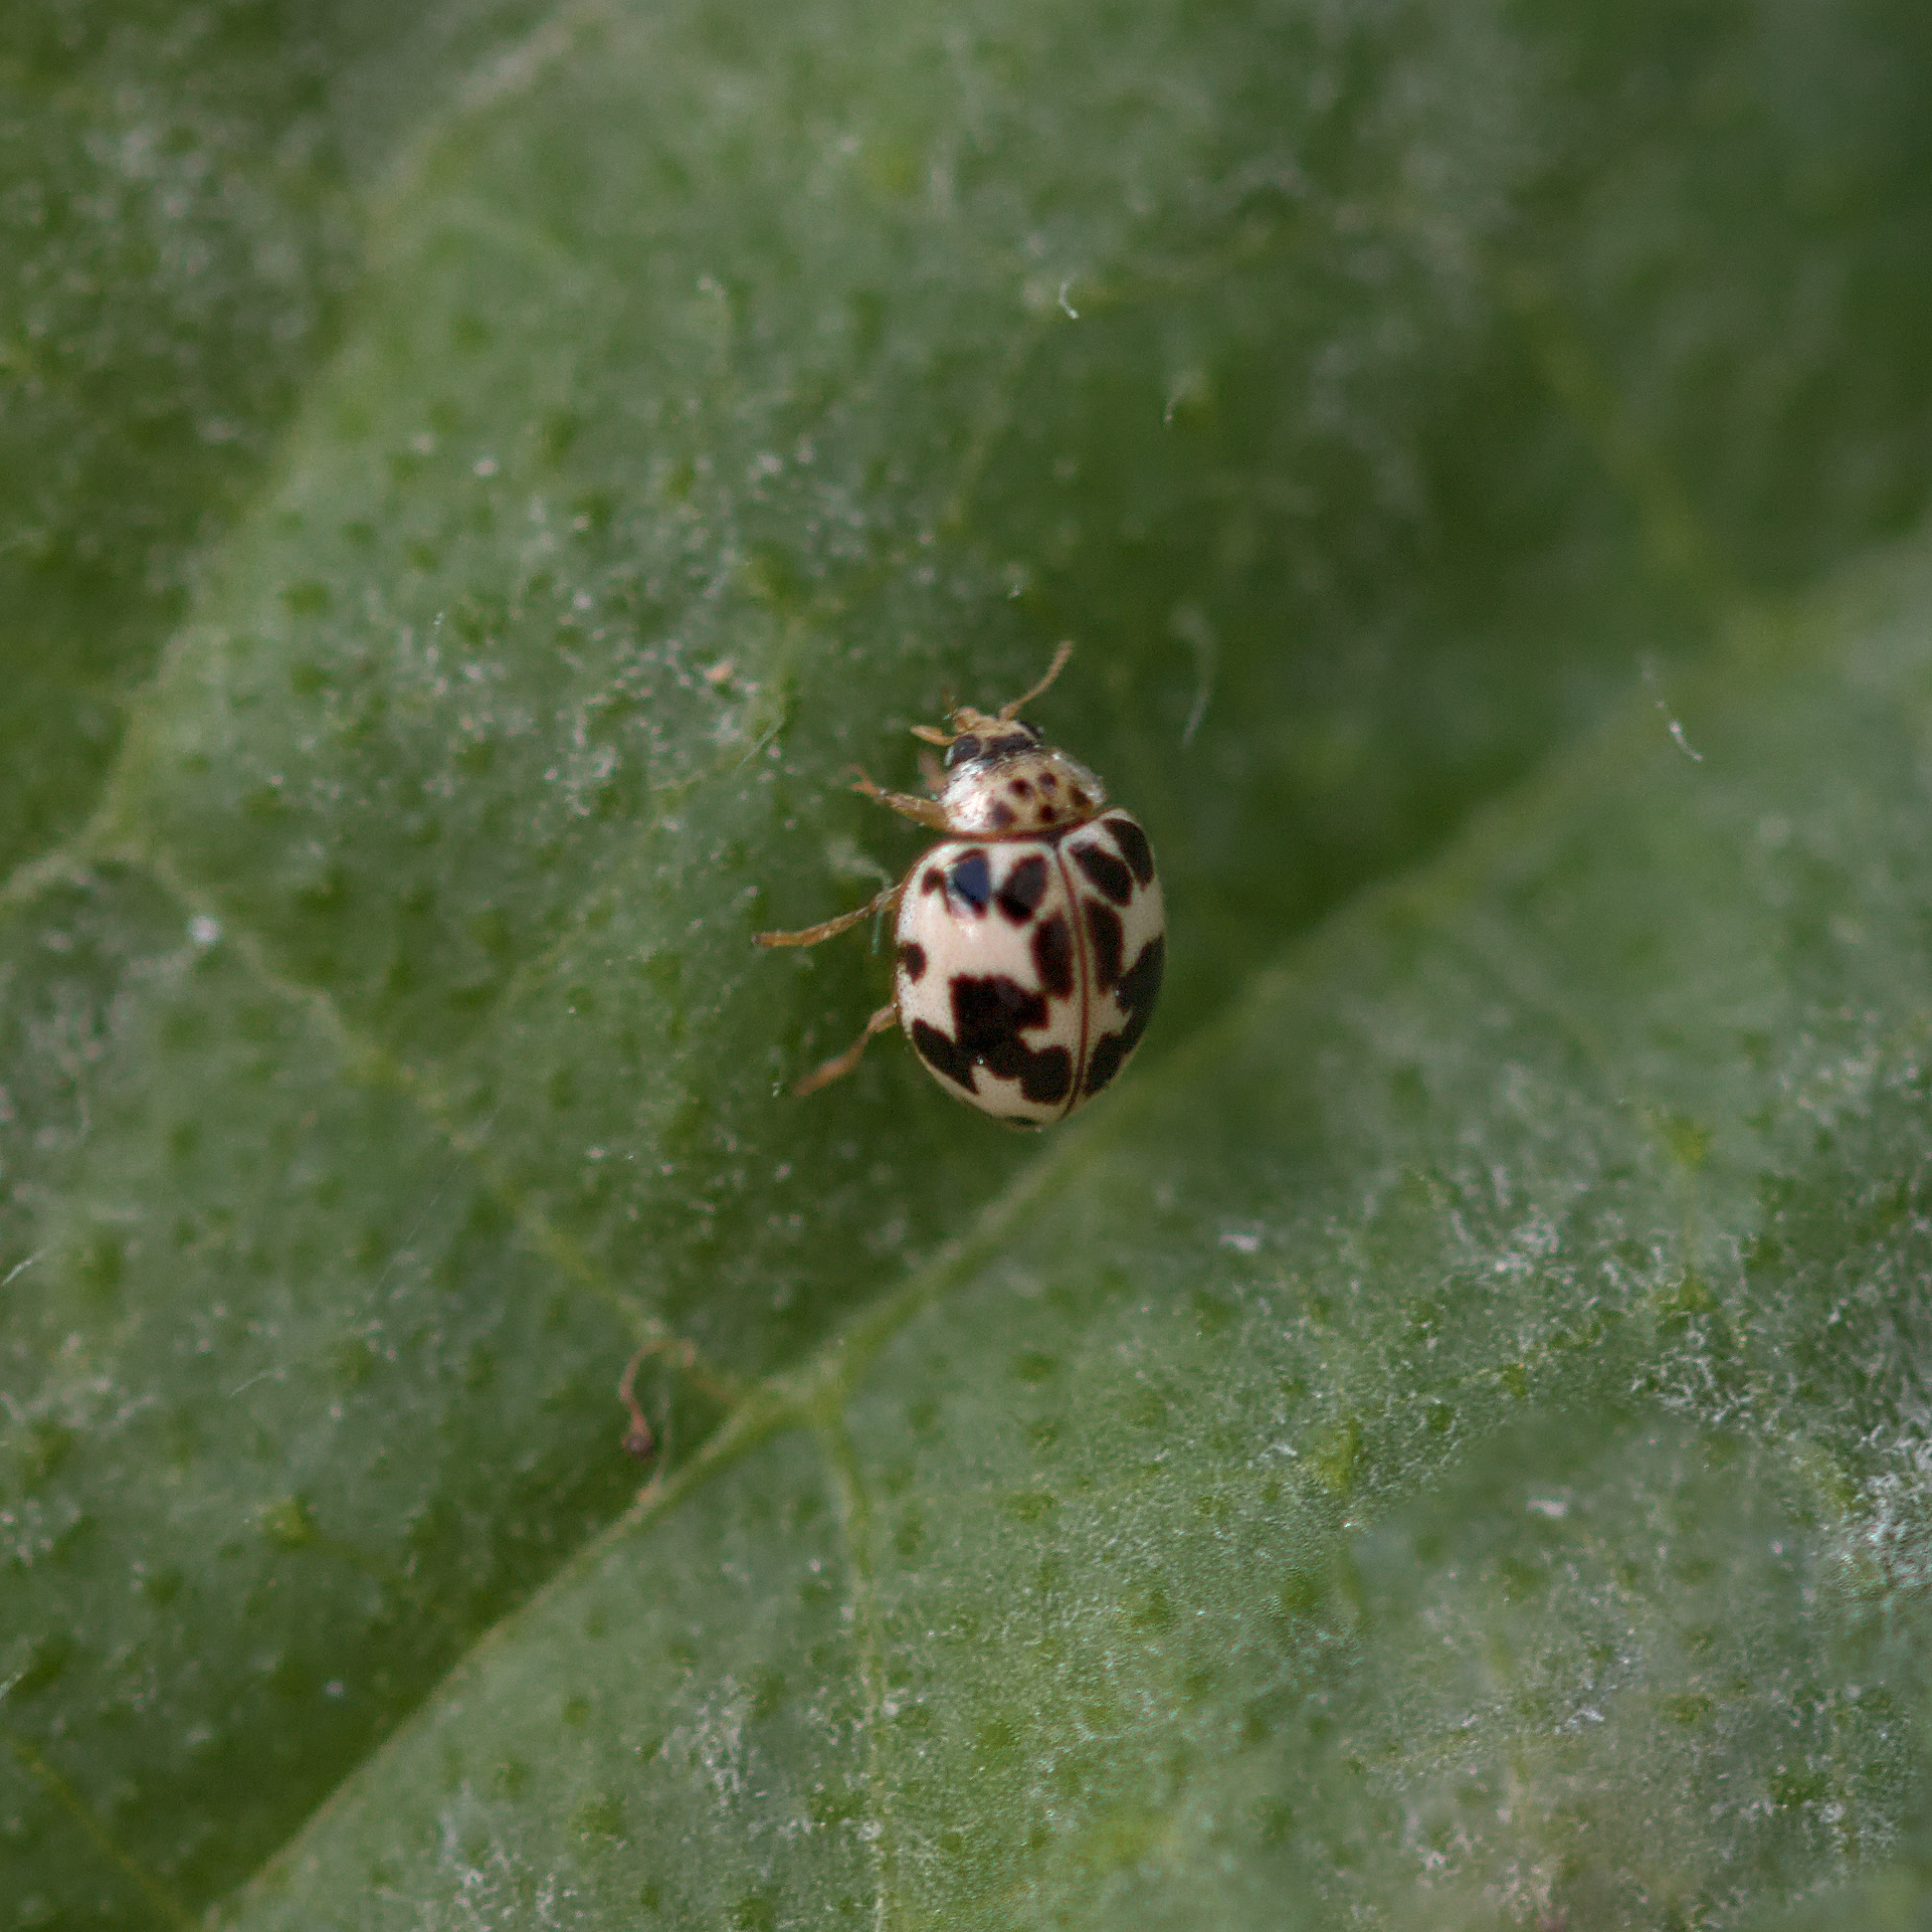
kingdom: Animalia
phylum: Arthropoda
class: Insecta
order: Coleoptera
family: Coccinellidae
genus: Psyllobora
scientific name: Psyllobora borealis
